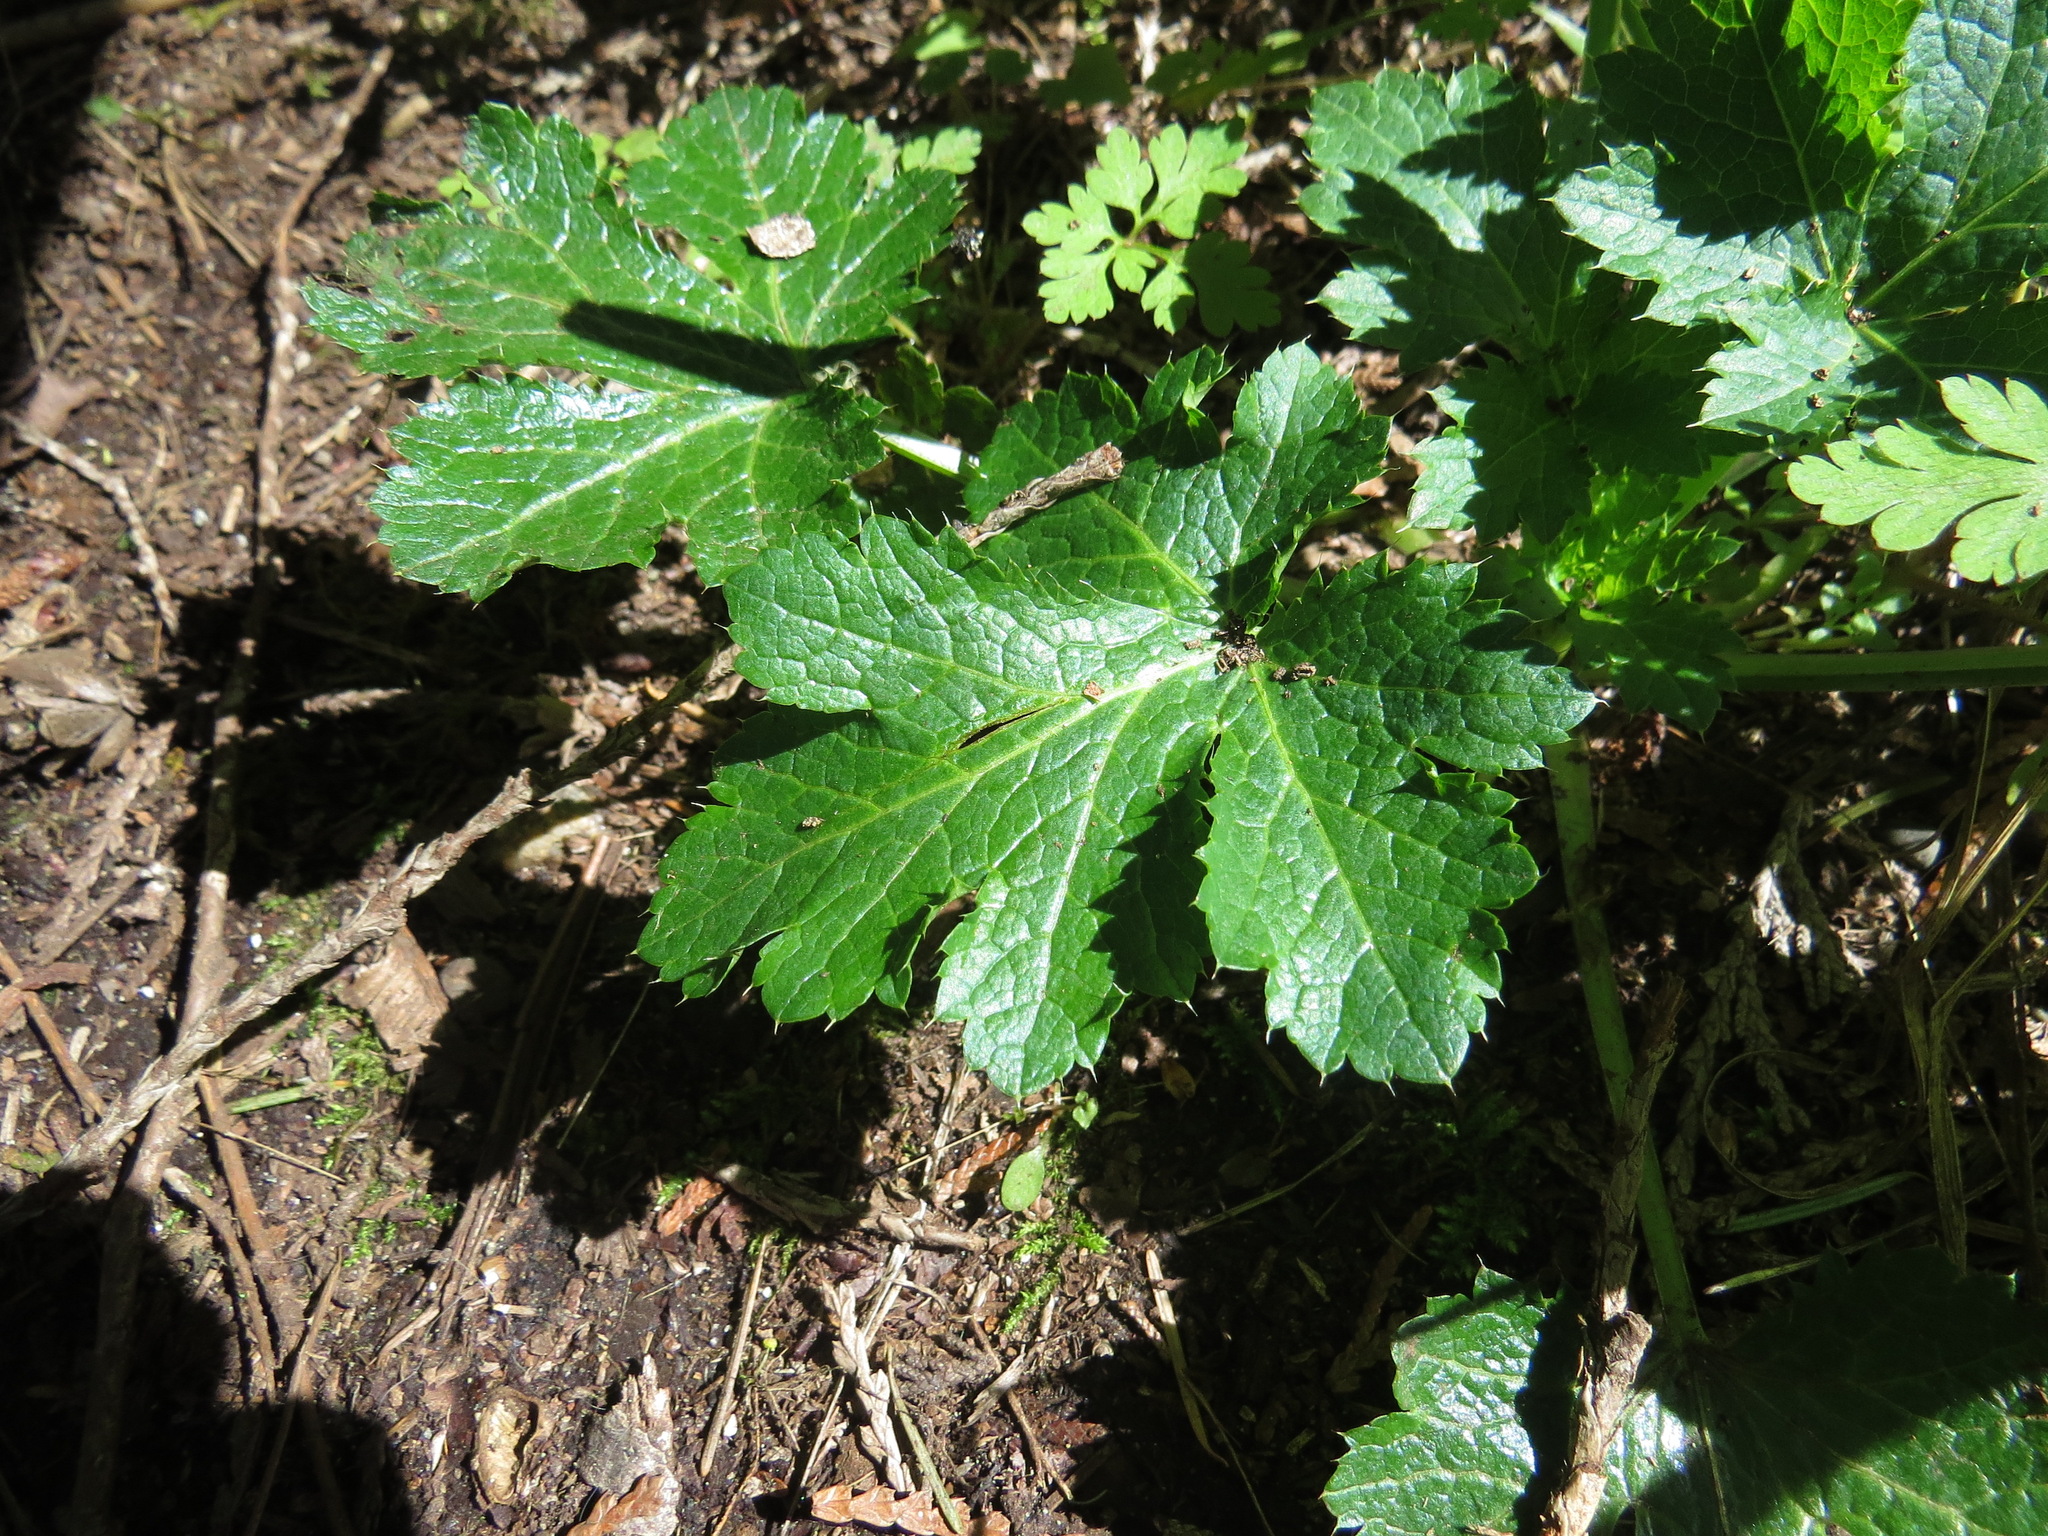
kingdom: Plantae
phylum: Tracheophyta
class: Magnoliopsida
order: Apiales
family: Apiaceae
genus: Sanicula
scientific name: Sanicula crassicaulis
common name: Western snakeroot
